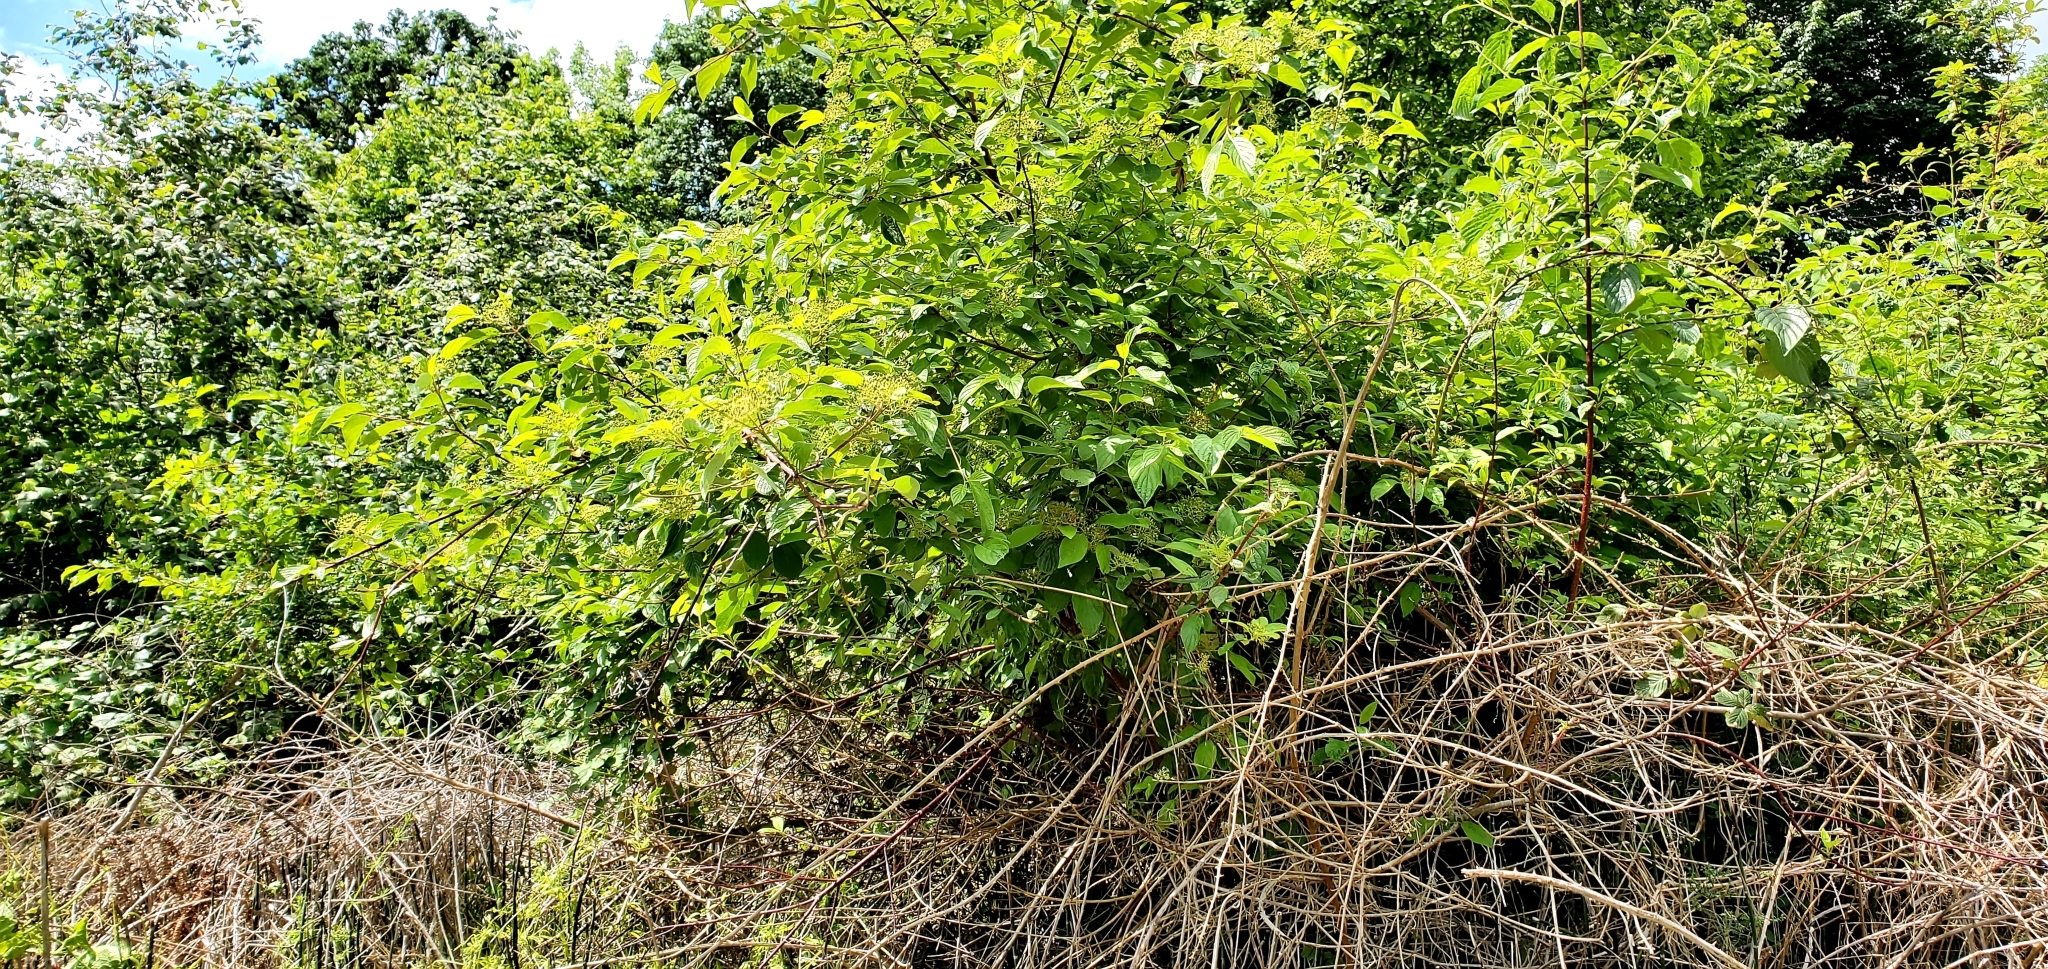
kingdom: Plantae
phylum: Tracheophyta
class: Magnoliopsida
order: Cornales
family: Cornaceae
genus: Cornus
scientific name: Cornus sericea
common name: Red-osier dogwood
